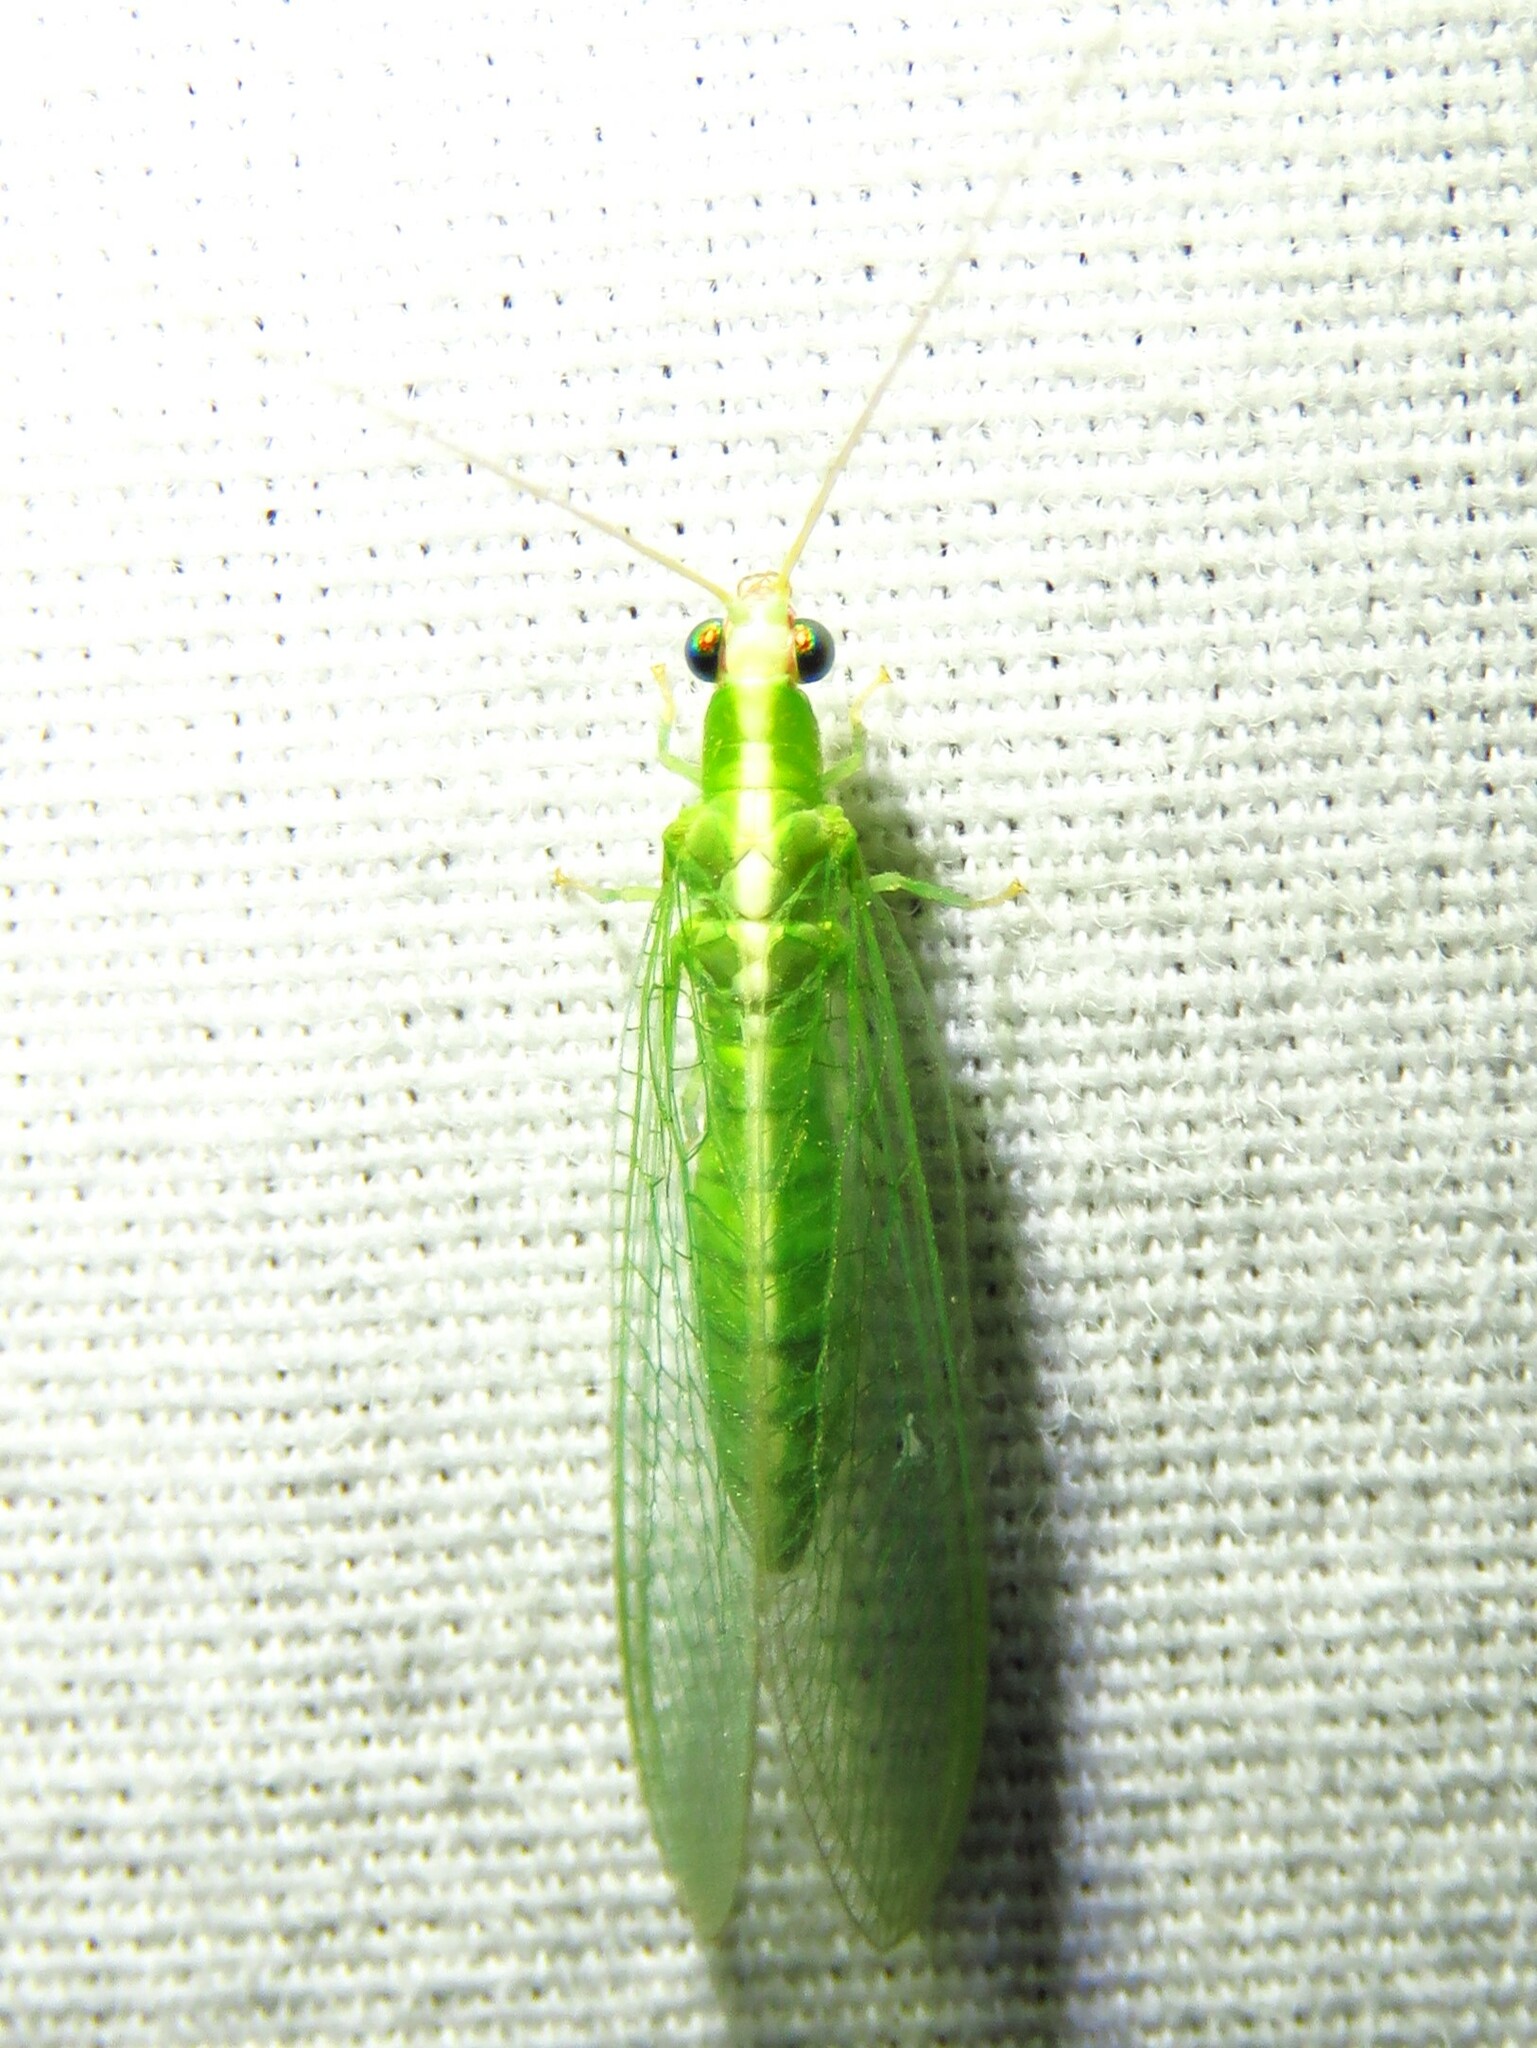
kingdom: Animalia
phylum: Arthropoda
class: Insecta
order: Neuroptera
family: Chrysopidae
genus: Chrysopodes
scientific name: Chrysopodes collaris
